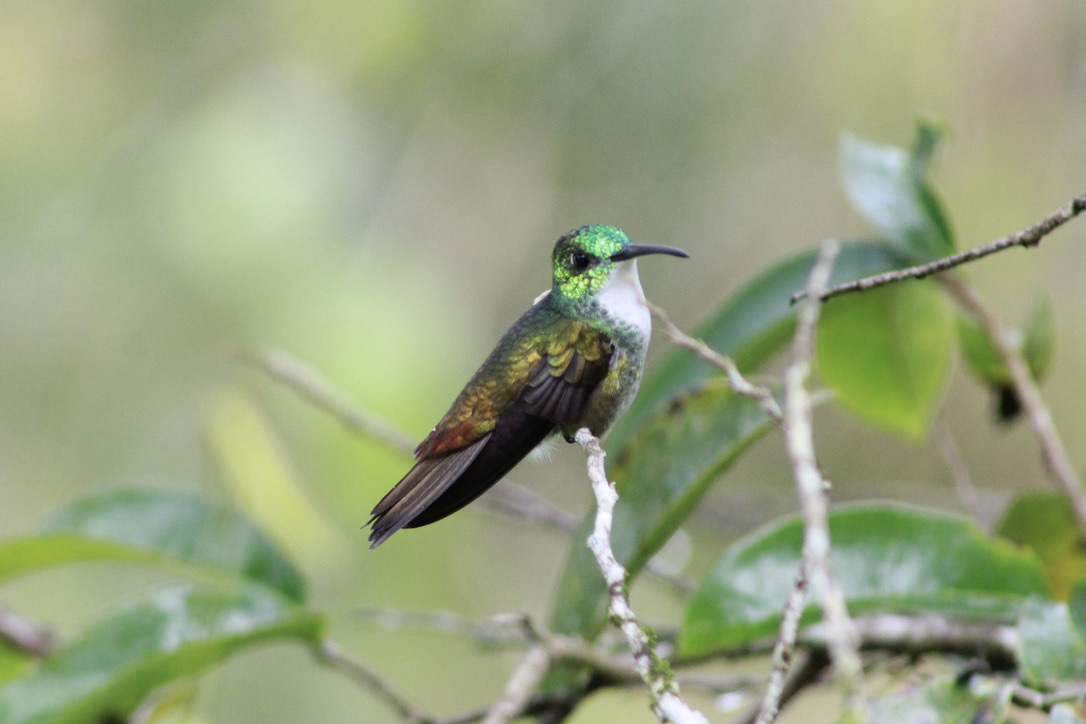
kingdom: Animalia
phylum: Chordata
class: Aves
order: Apodiformes
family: Trochilidae
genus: Chrysuronia
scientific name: Chrysuronia brevirostris
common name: White-chested emerald
